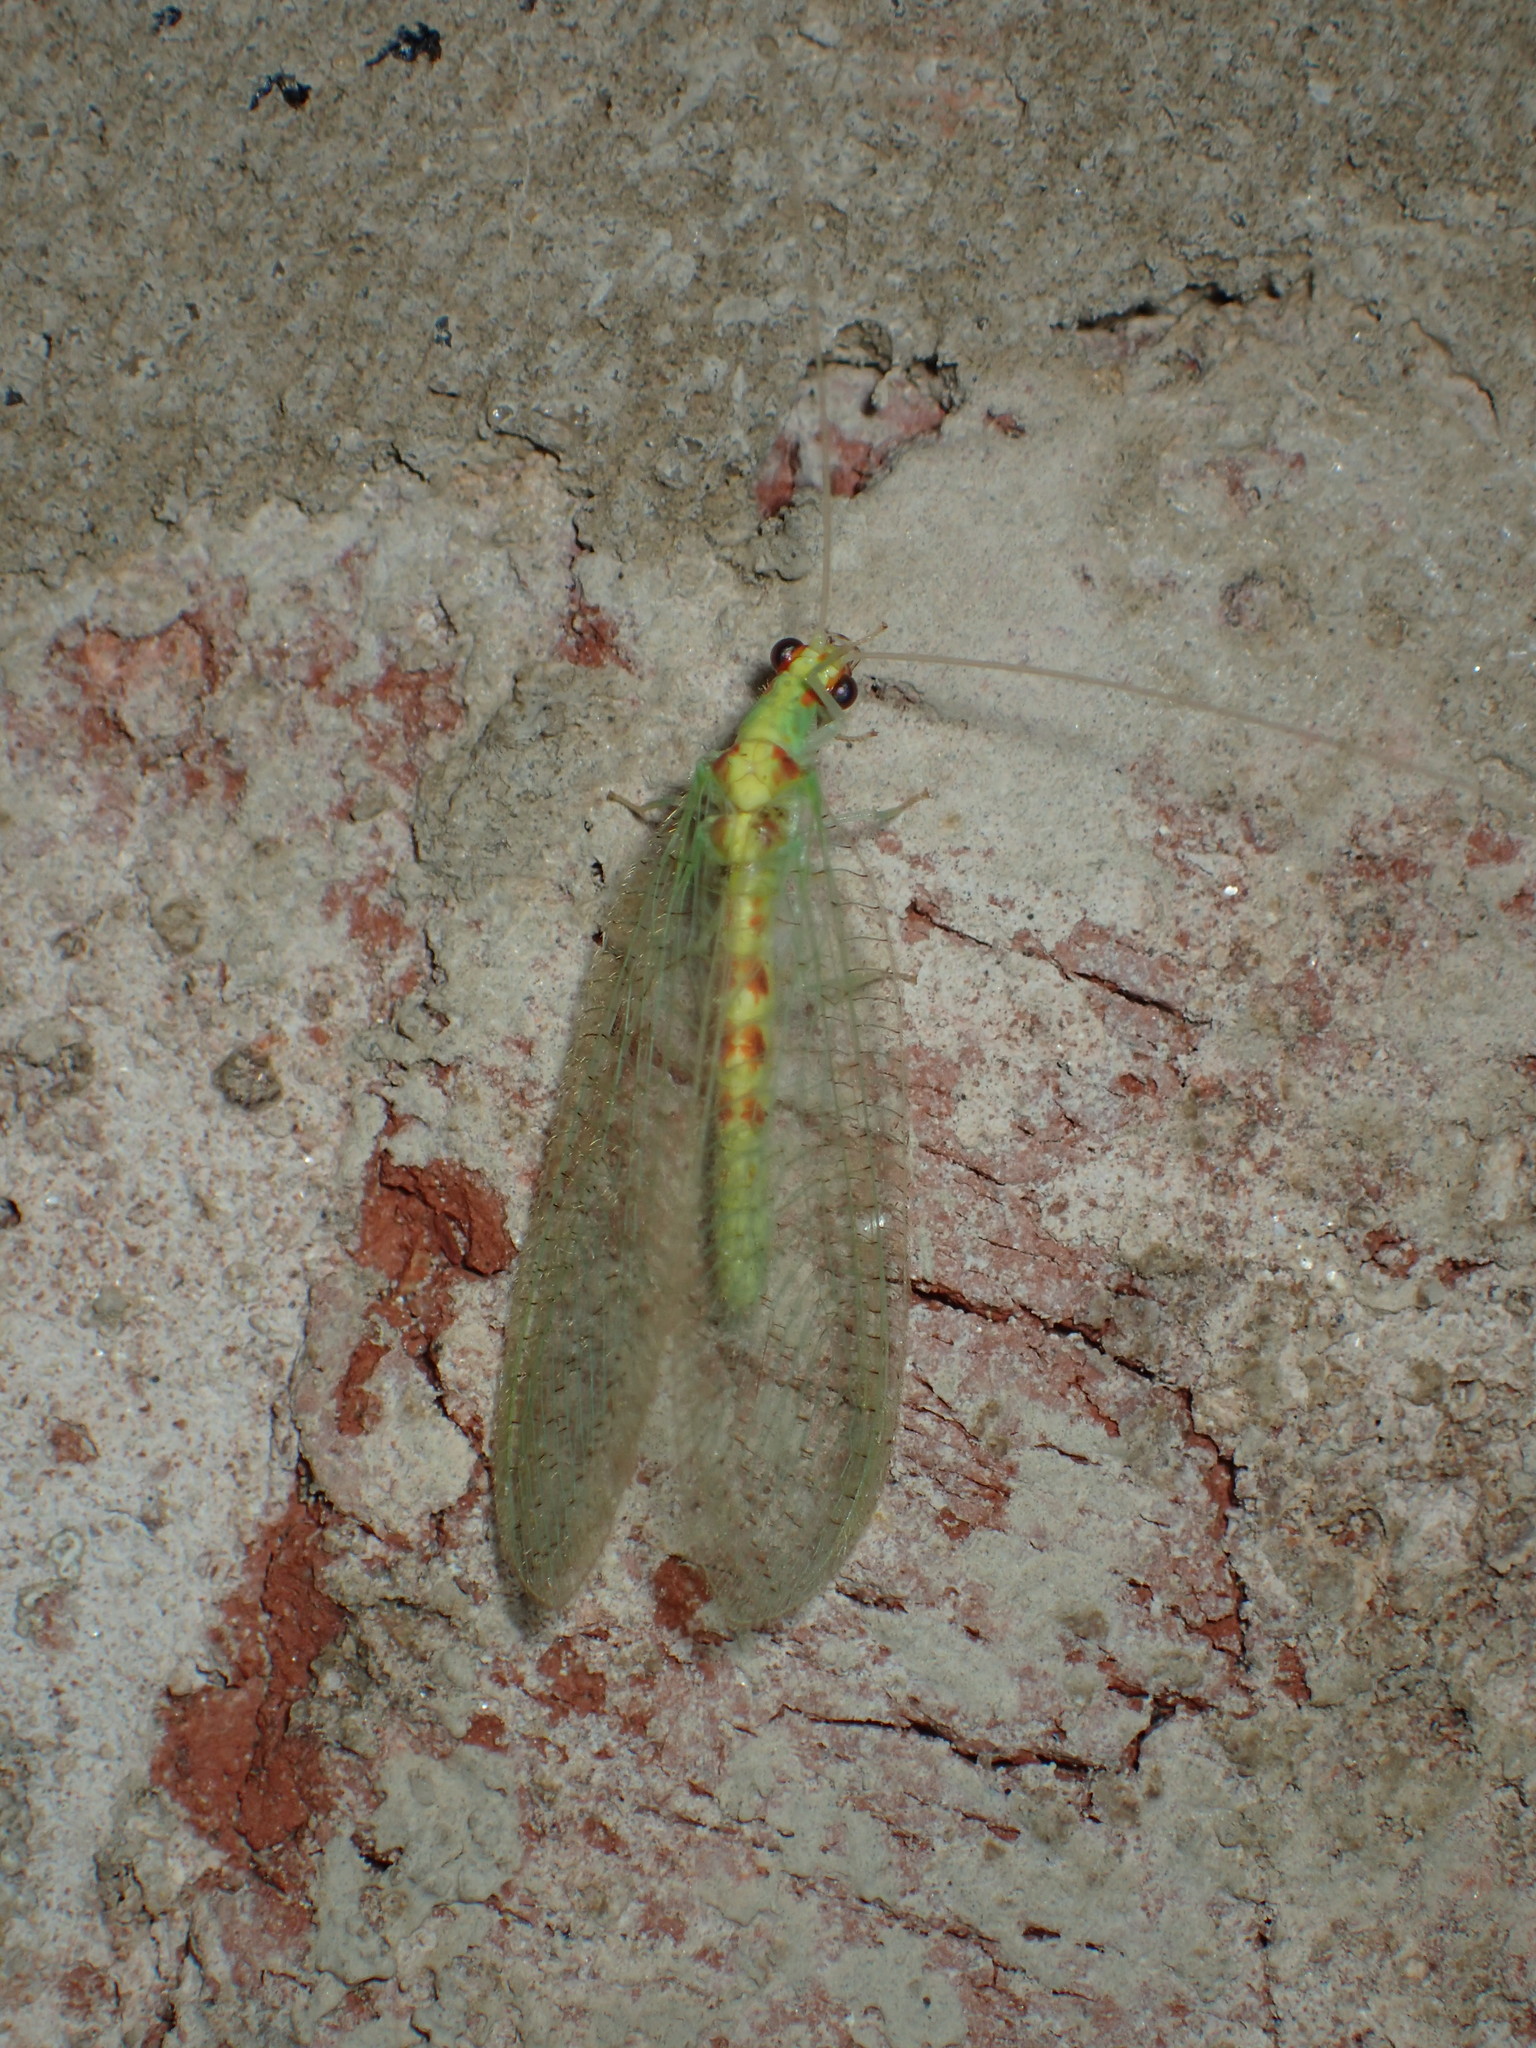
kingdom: Animalia
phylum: Arthropoda
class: Insecta
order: Neuroptera
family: Chrysopidae
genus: Chrysopa
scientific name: Chrysopa quadripunctata
